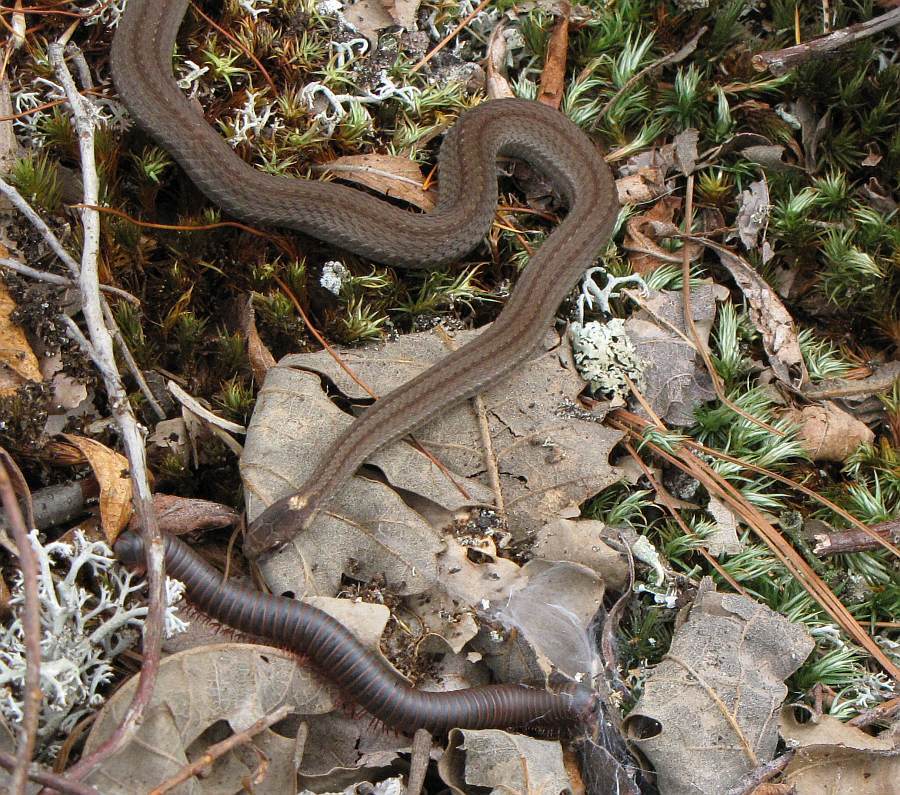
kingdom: Animalia
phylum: Chordata
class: Squamata
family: Colubridae
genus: Storeria
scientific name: Storeria occipitomaculata
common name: Redbelly snake
